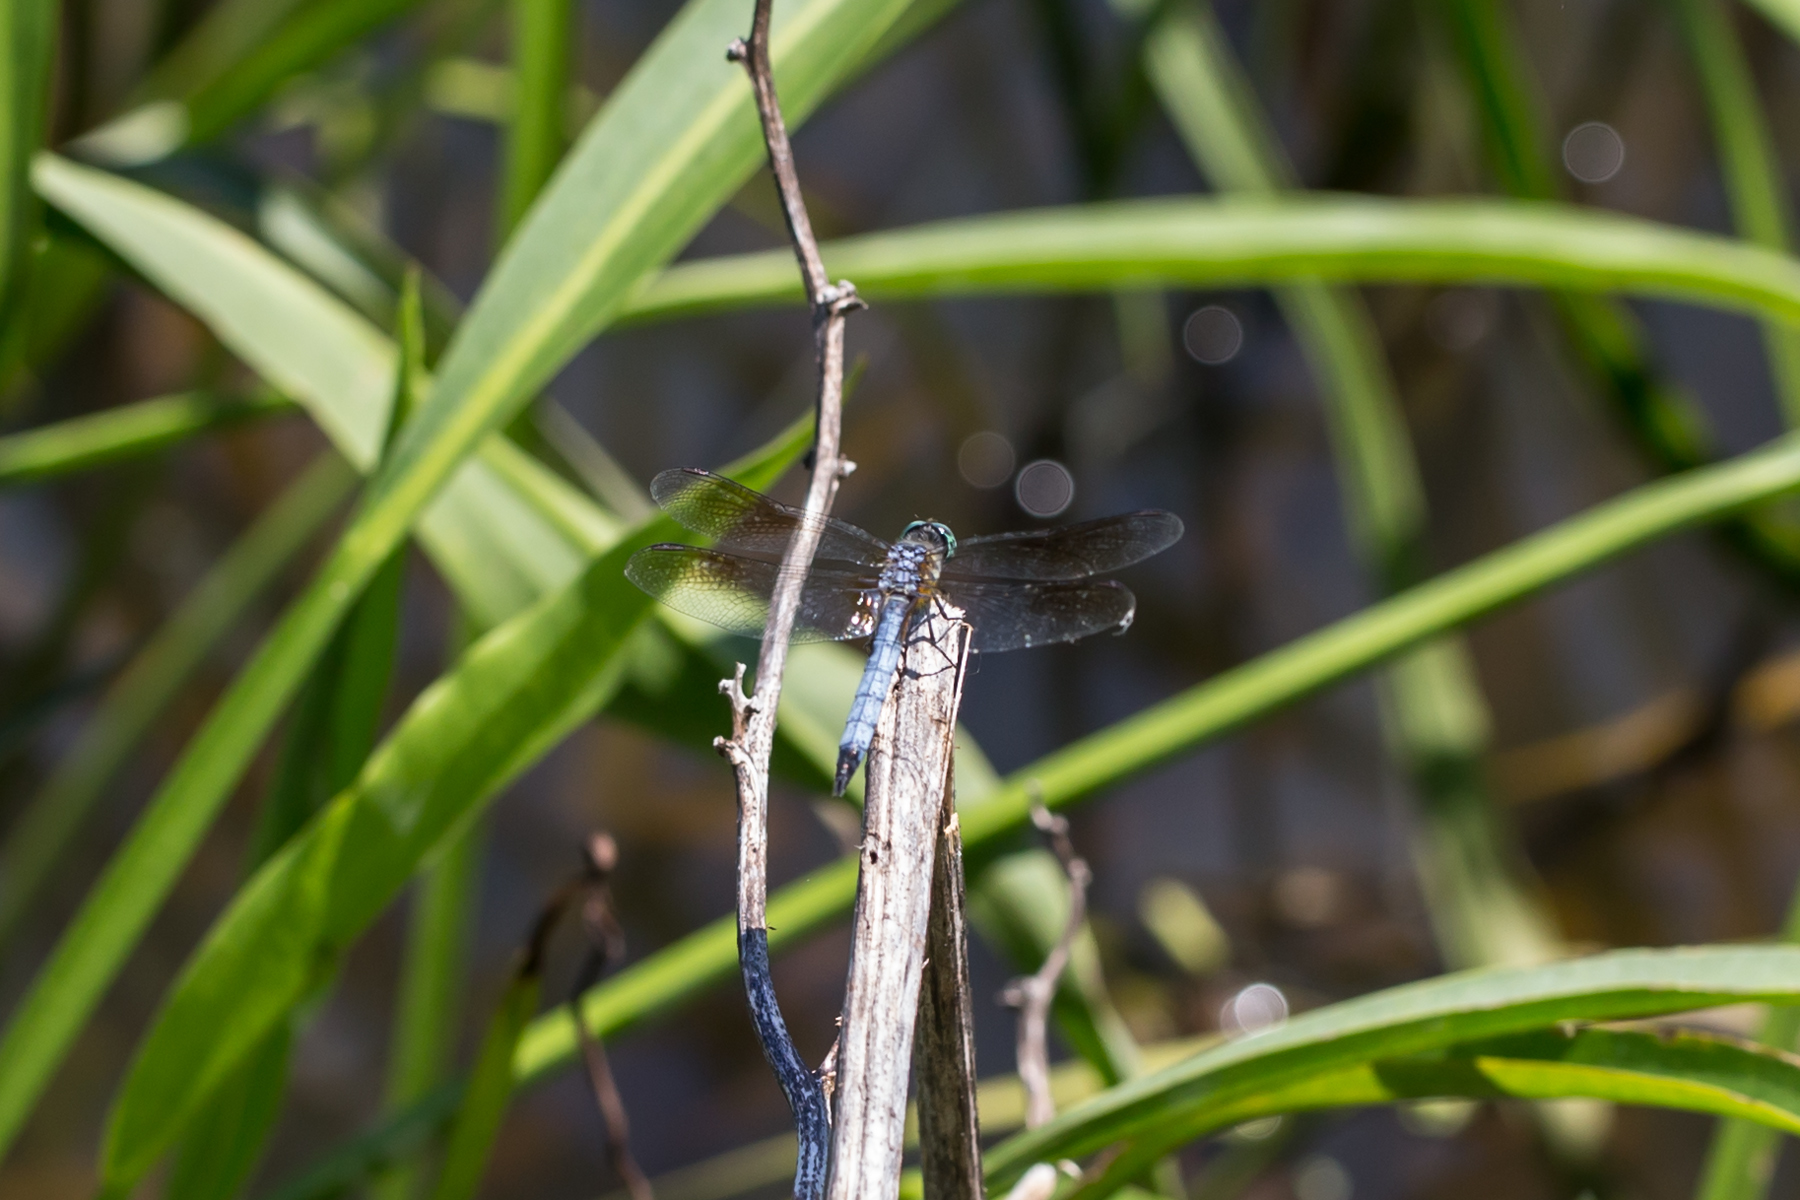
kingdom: Animalia
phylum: Arthropoda
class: Insecta
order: Odonata
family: Libellulidae
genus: Pachydiplax
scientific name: Pachydiplax longipennis
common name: Blue dasher
